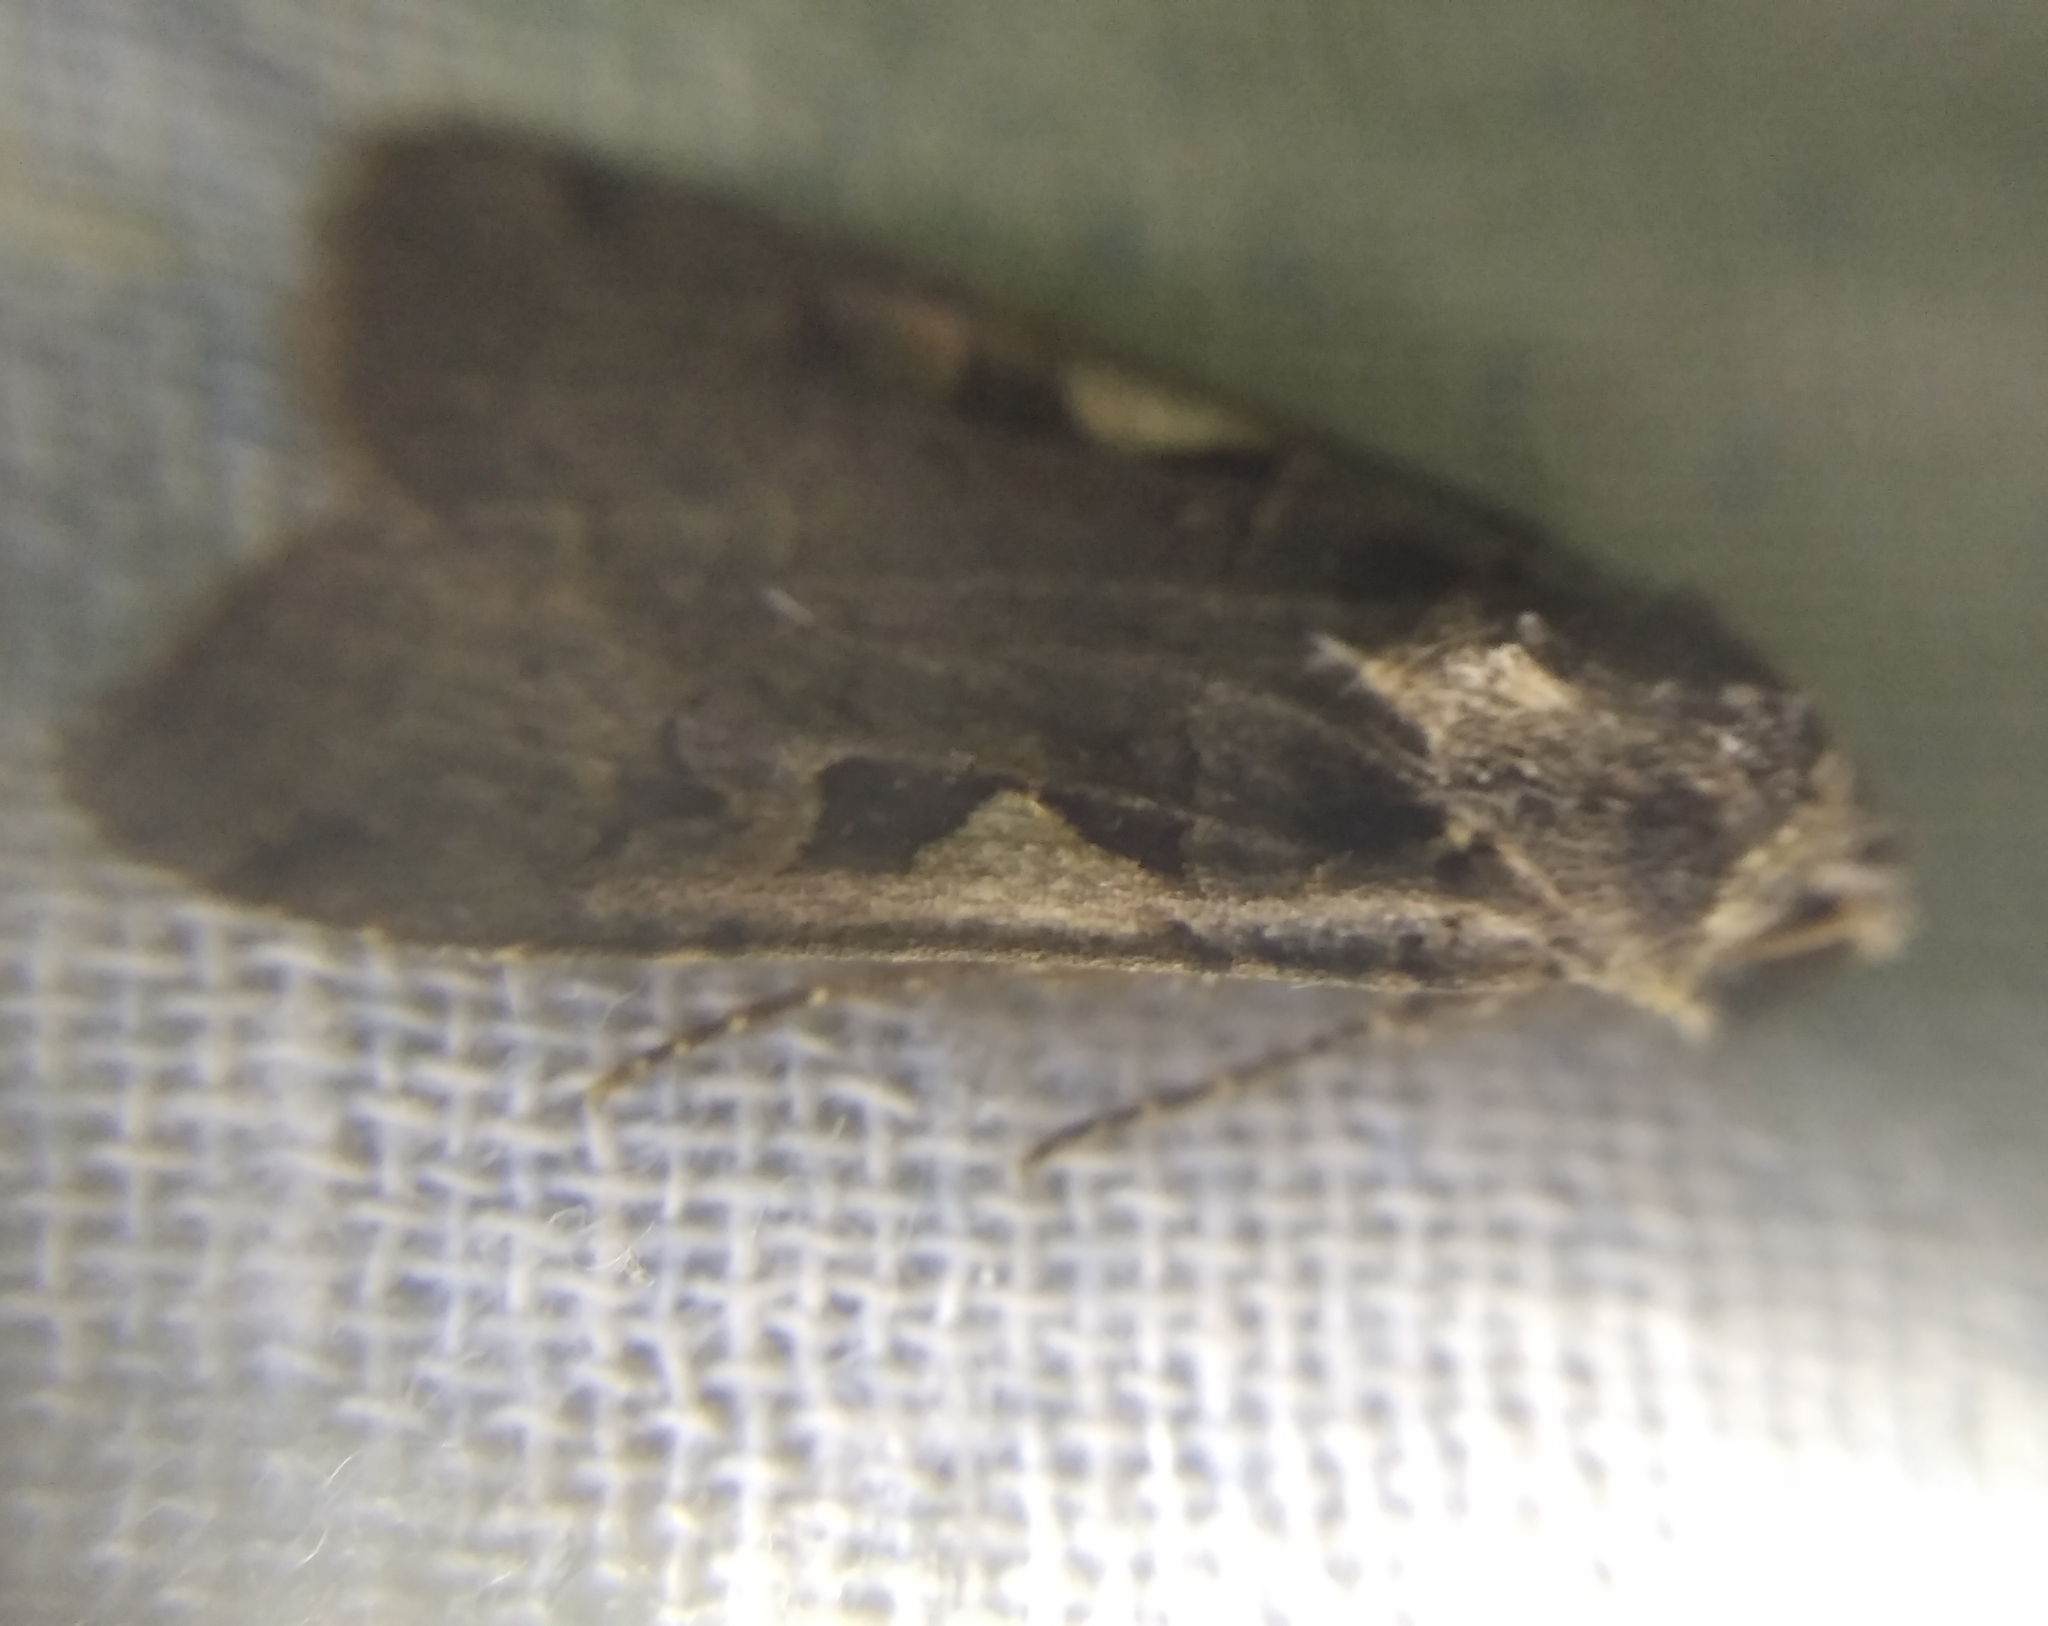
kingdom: Animalia
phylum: Arthropoda
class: Insecta
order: Lepidoptera
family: Noctuidae
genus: Xestia
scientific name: Xestia c-nigrum
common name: Setaceous hebrew character
